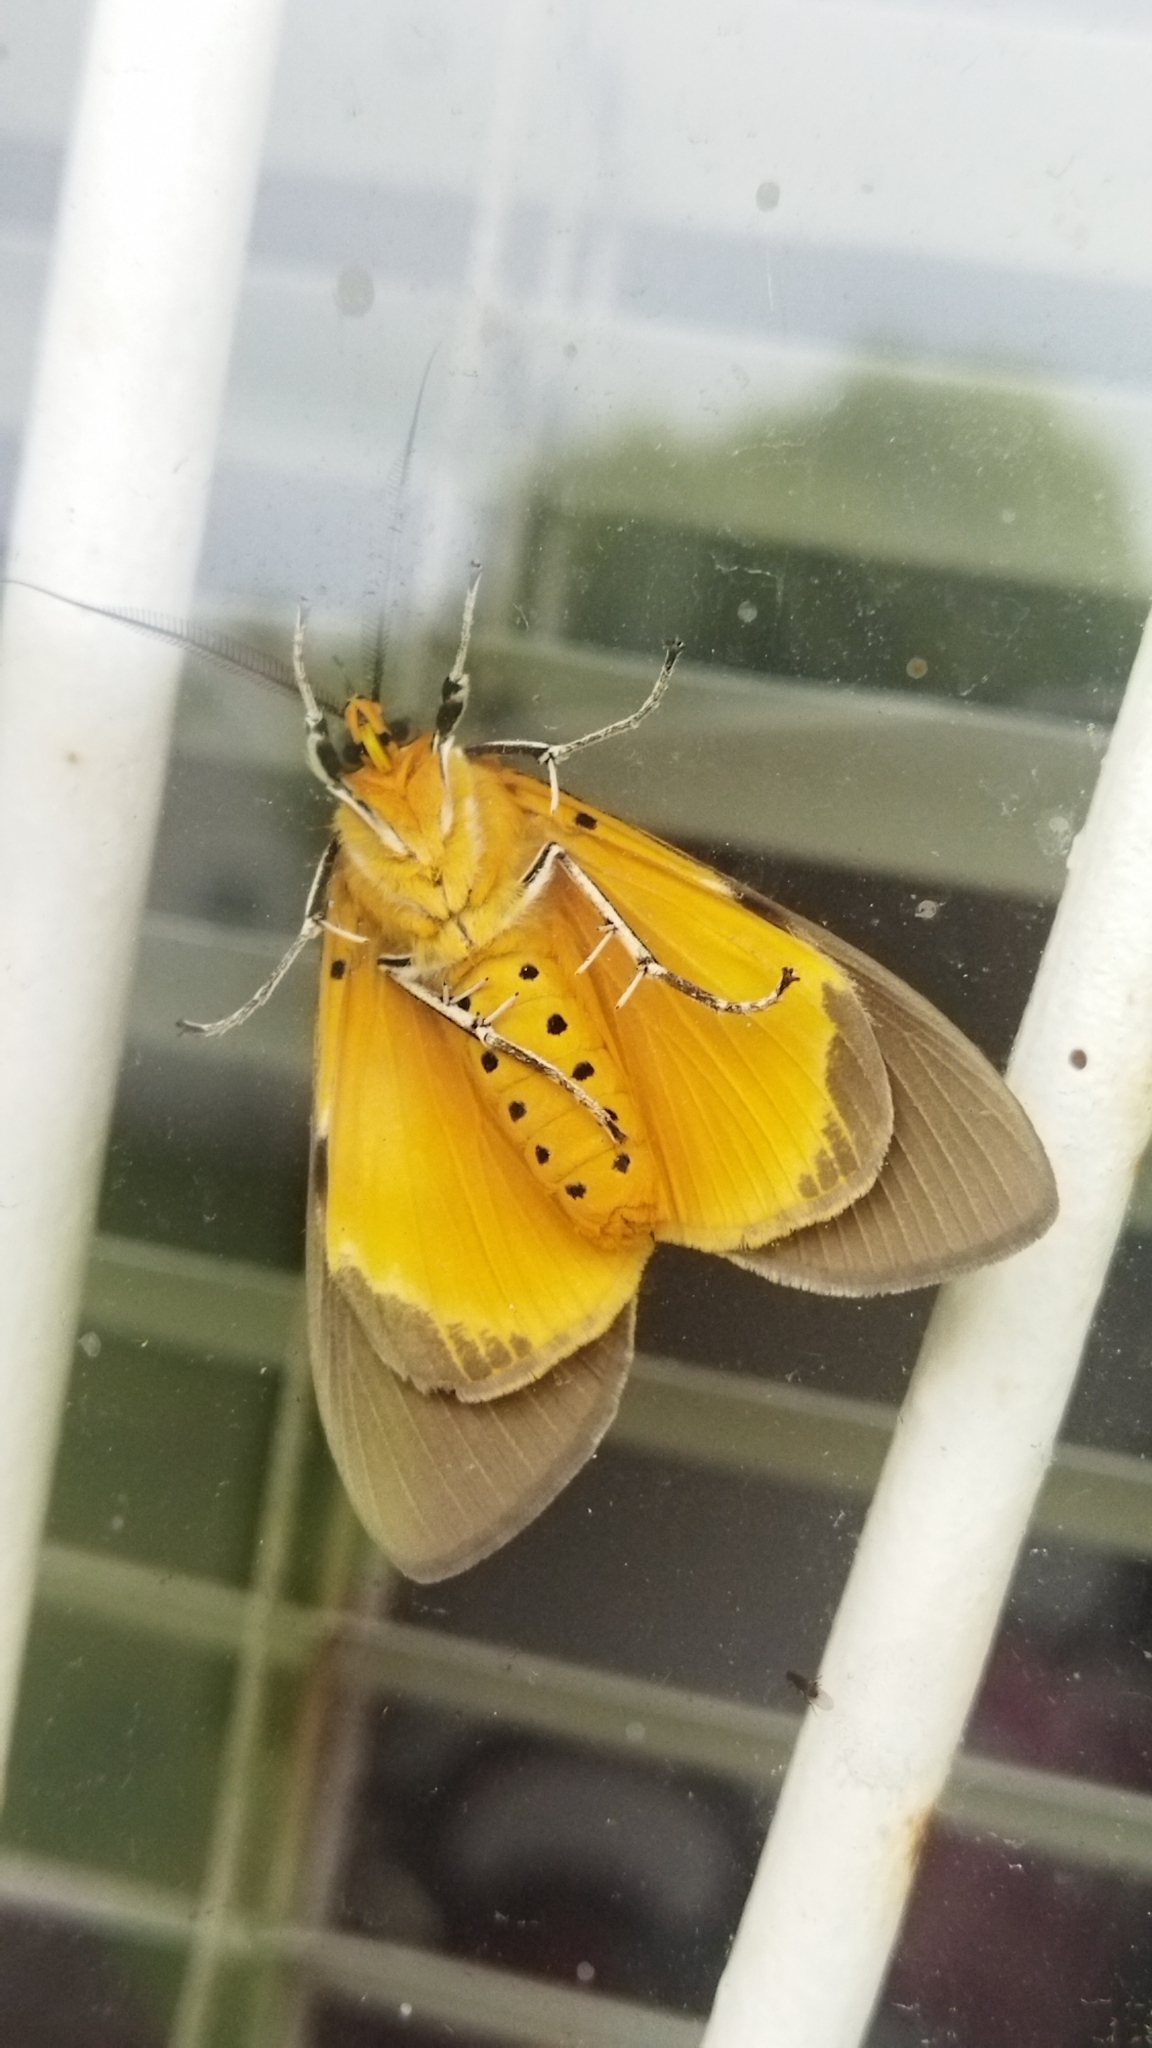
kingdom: Animalia
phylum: Arthropoda
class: Insecta
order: Lepidoptera
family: Erebidae
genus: Asota
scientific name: Asota speciosa
